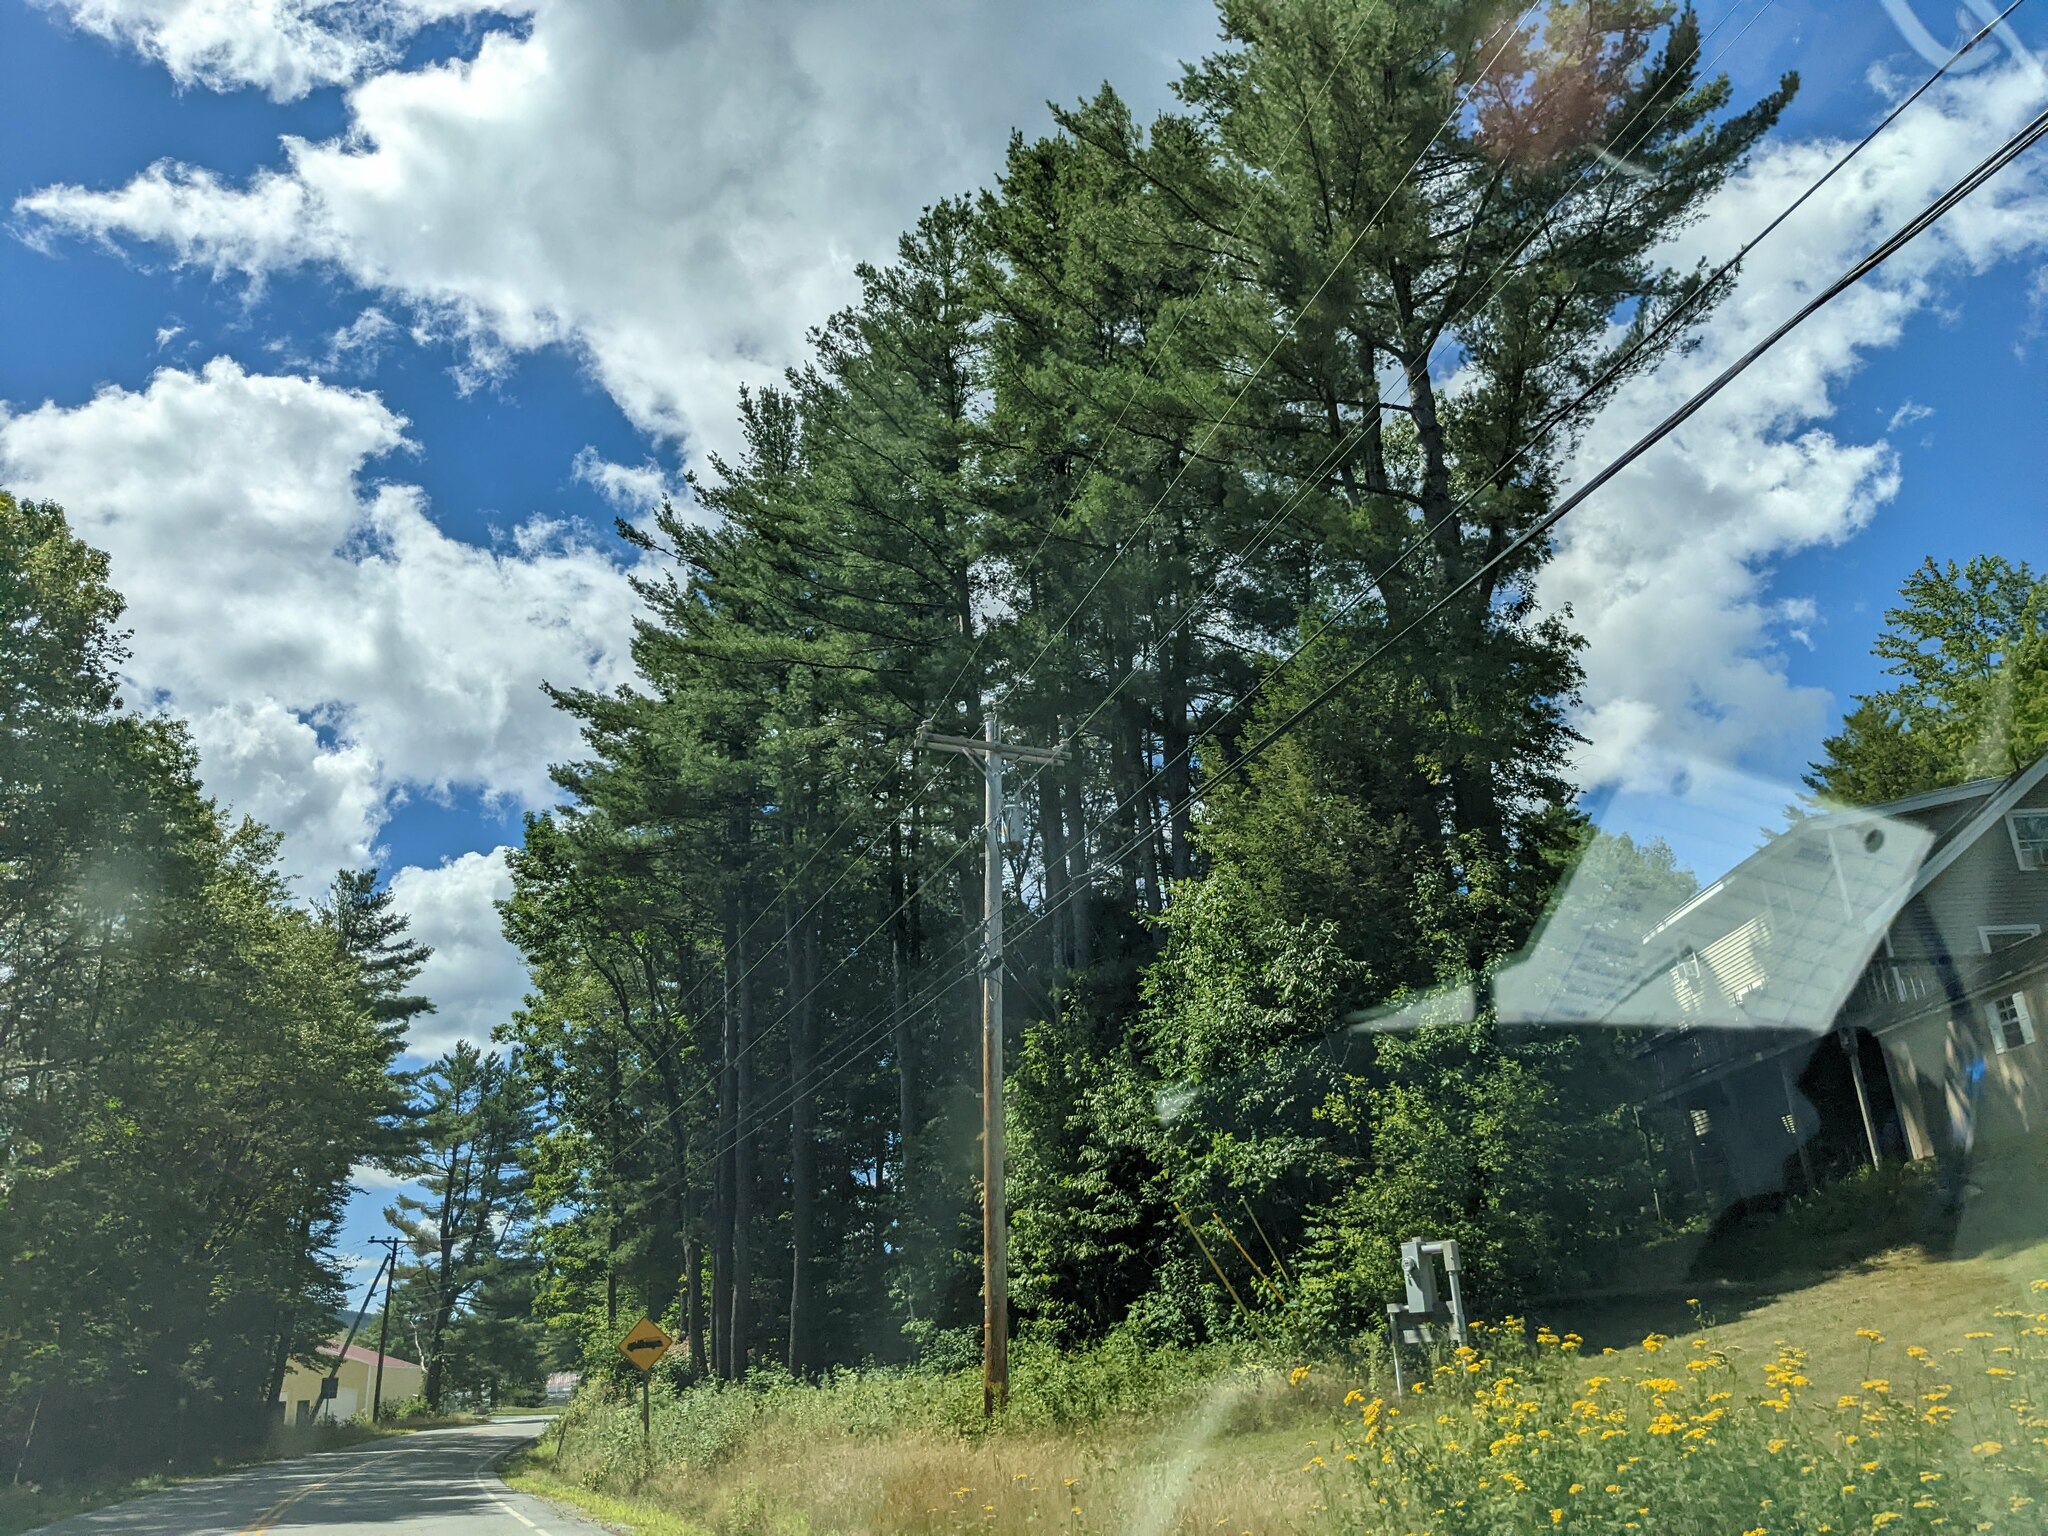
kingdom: Plantae
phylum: Tracheophyta
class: Pinopsida
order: Pinales
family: Pinaceae
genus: Pinus
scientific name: Pinus strobus
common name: Weymouth pine
